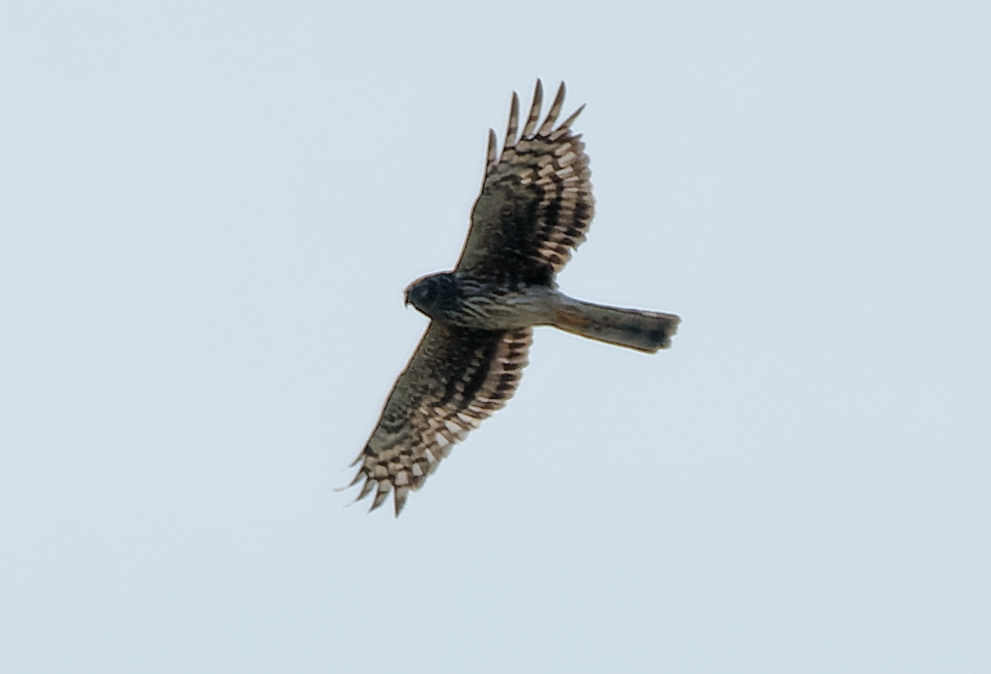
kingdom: Animalia
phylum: Chordata
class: Aves
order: Accipitriformes
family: Accipitridae
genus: Circus
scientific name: Circus cyaneus
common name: Hen harrier
